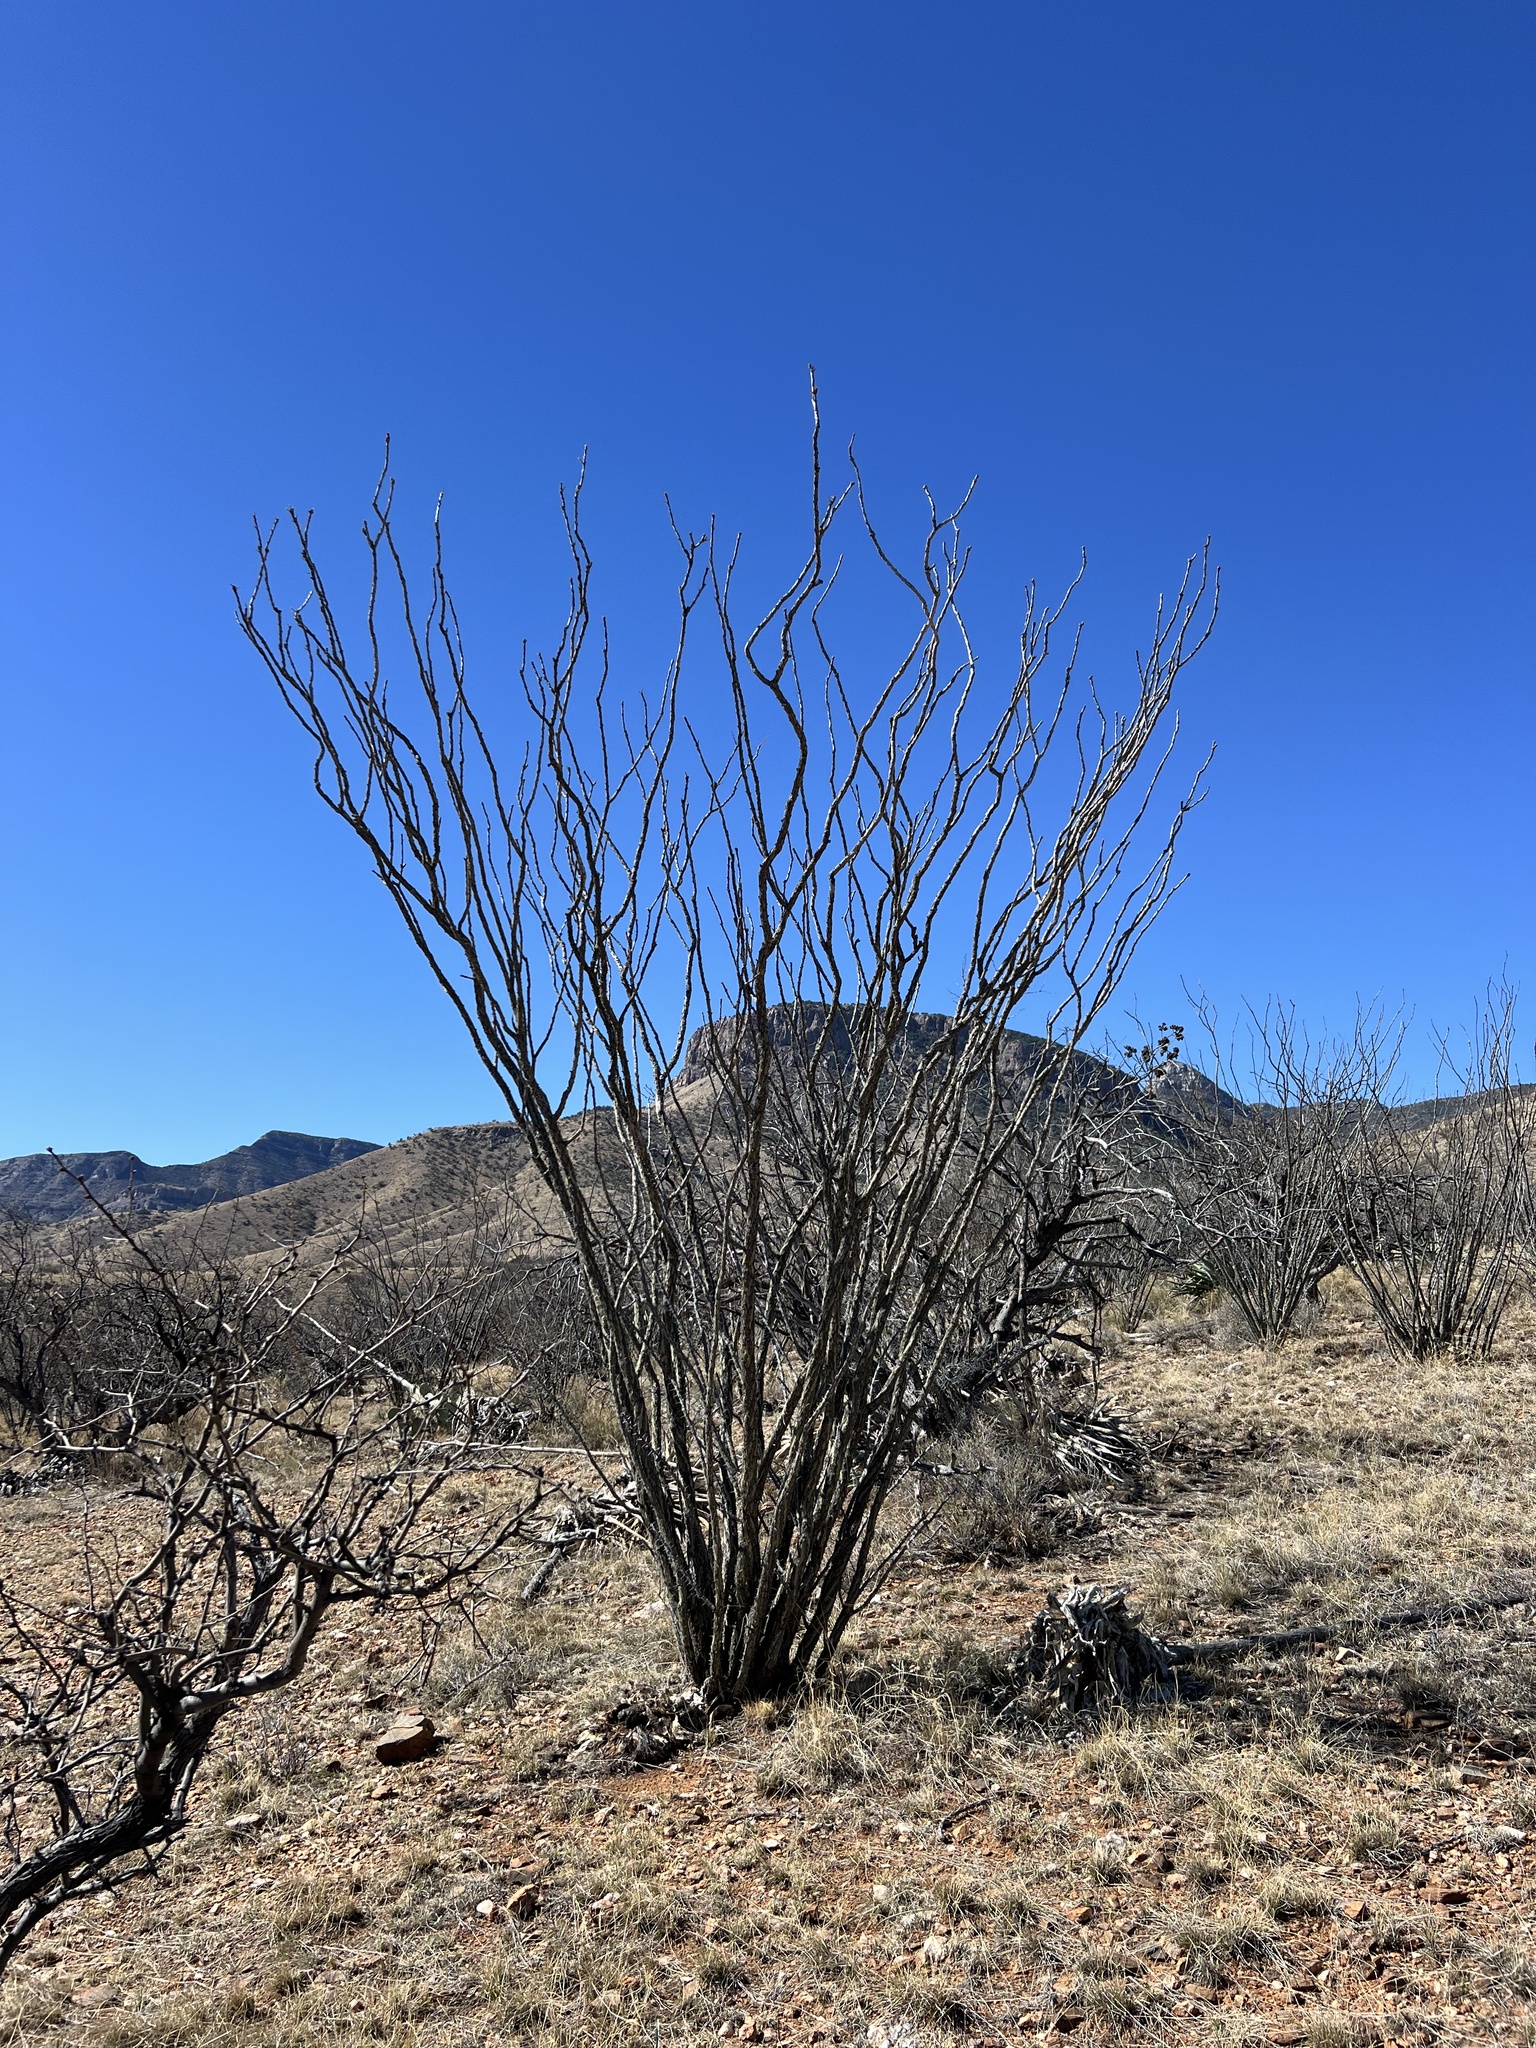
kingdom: Plantae
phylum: Tracheophyta
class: Magnoliopsida
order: Ericales
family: Fouquieriaceae
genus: Fouquieria
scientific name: Fouquieria splendens
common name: Vine-cactus
